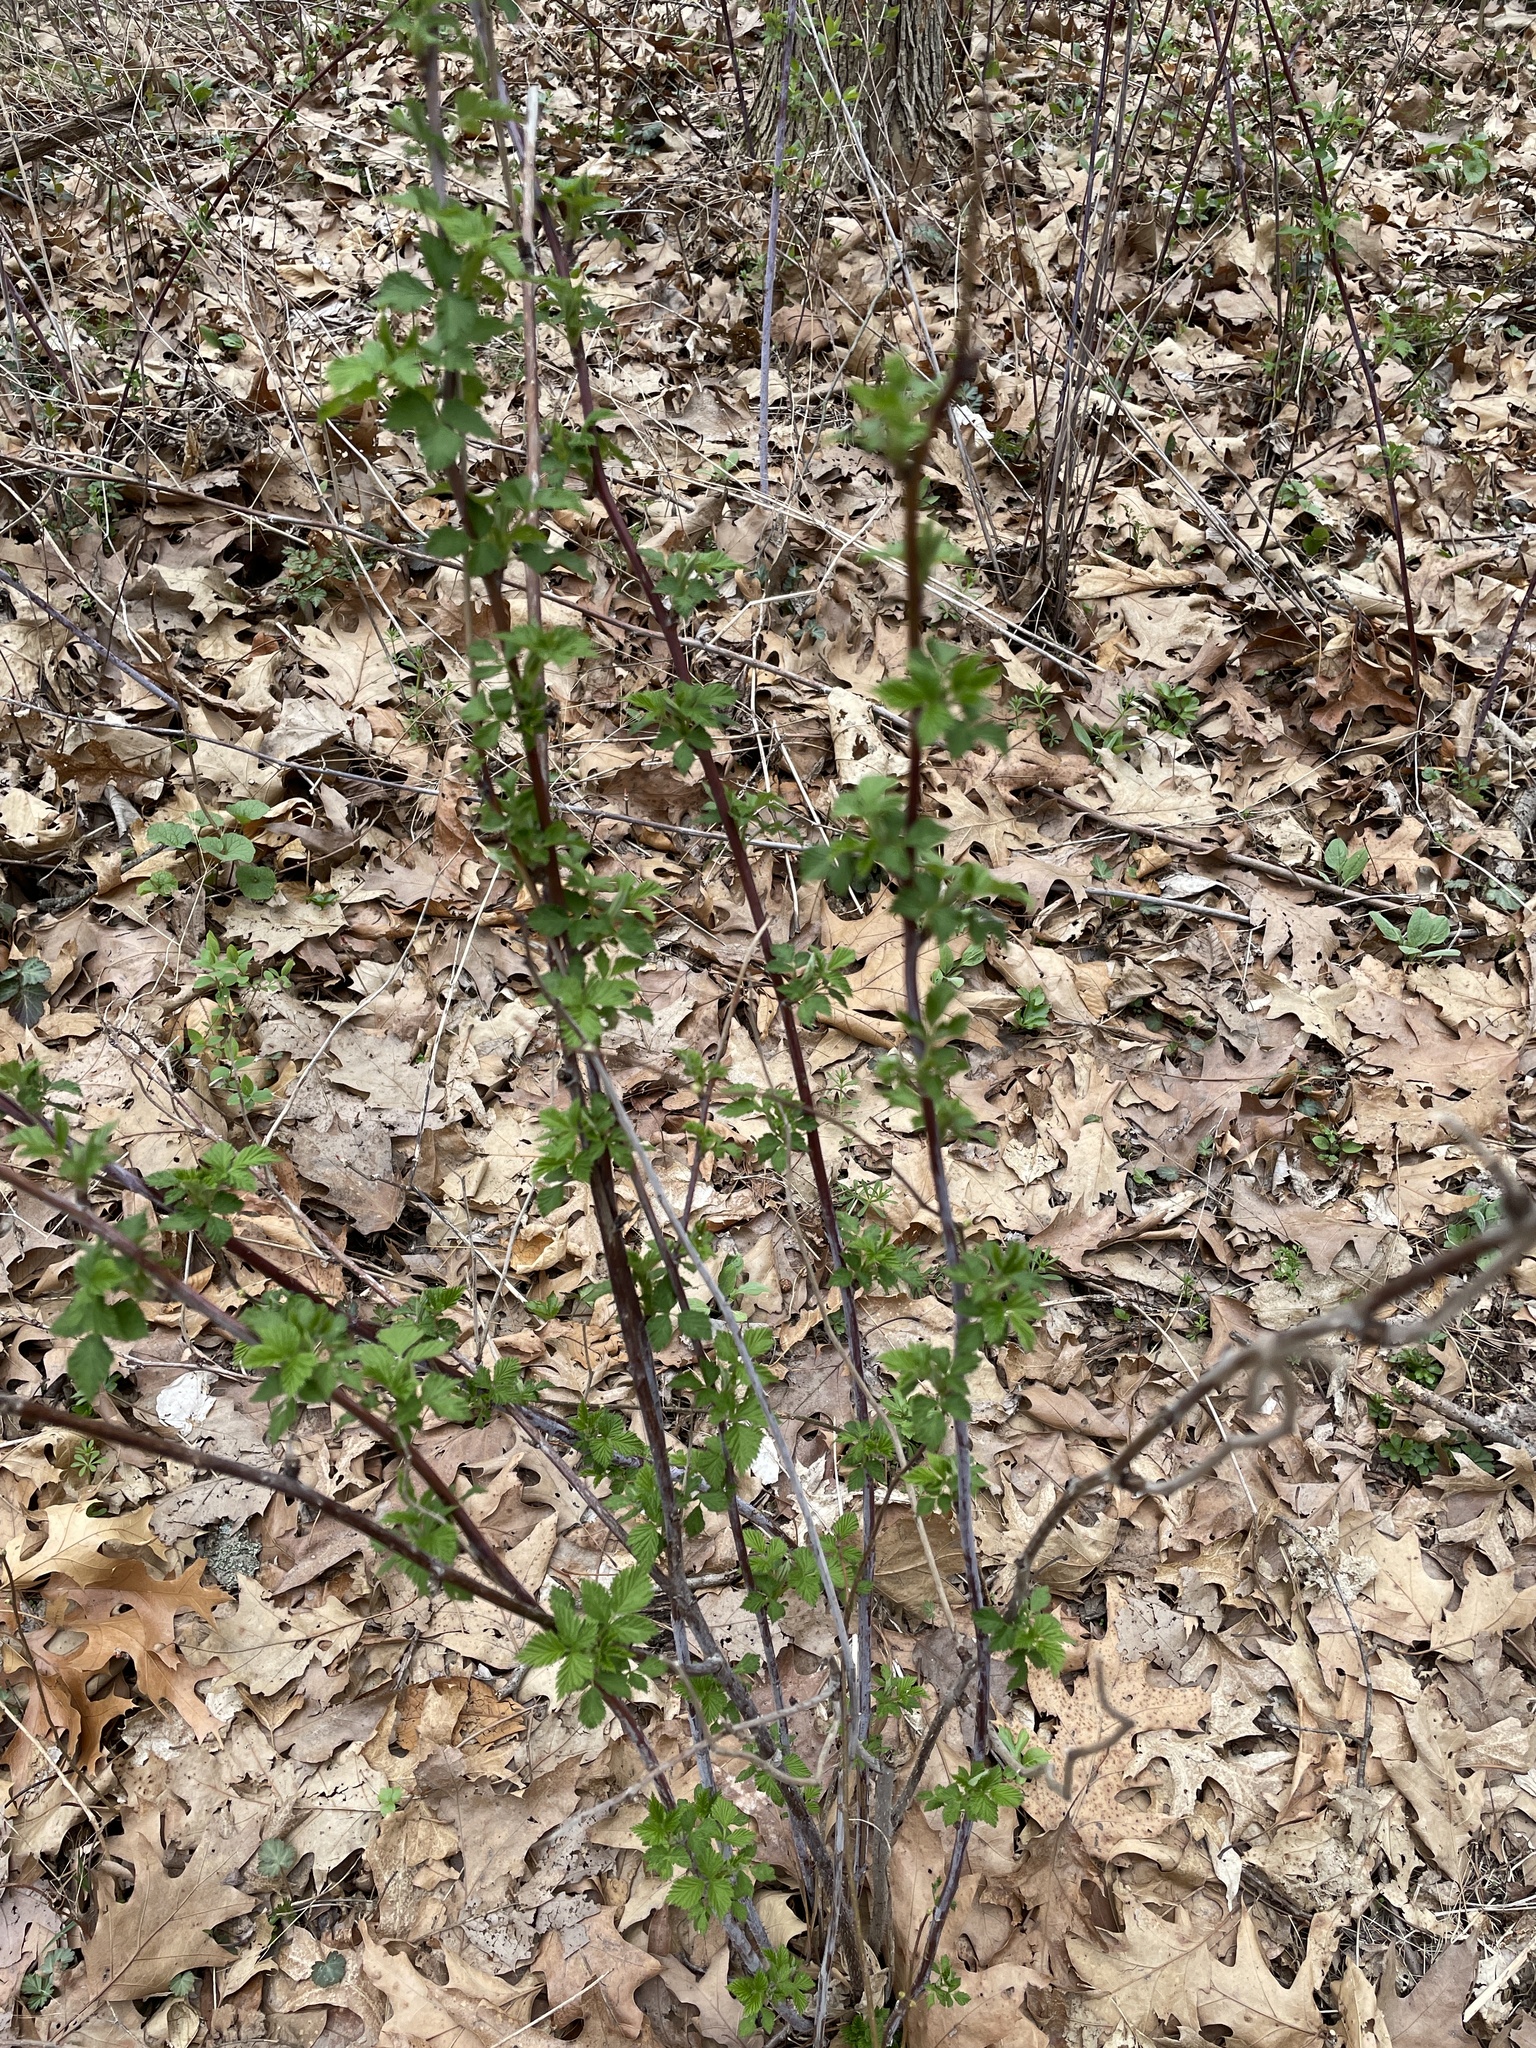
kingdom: Plantae
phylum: Tracheophyta
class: Magnoliopsida
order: Rosales
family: Rosaceae
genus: Rubus
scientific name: Rubus occidentalis
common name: Black raspberry
